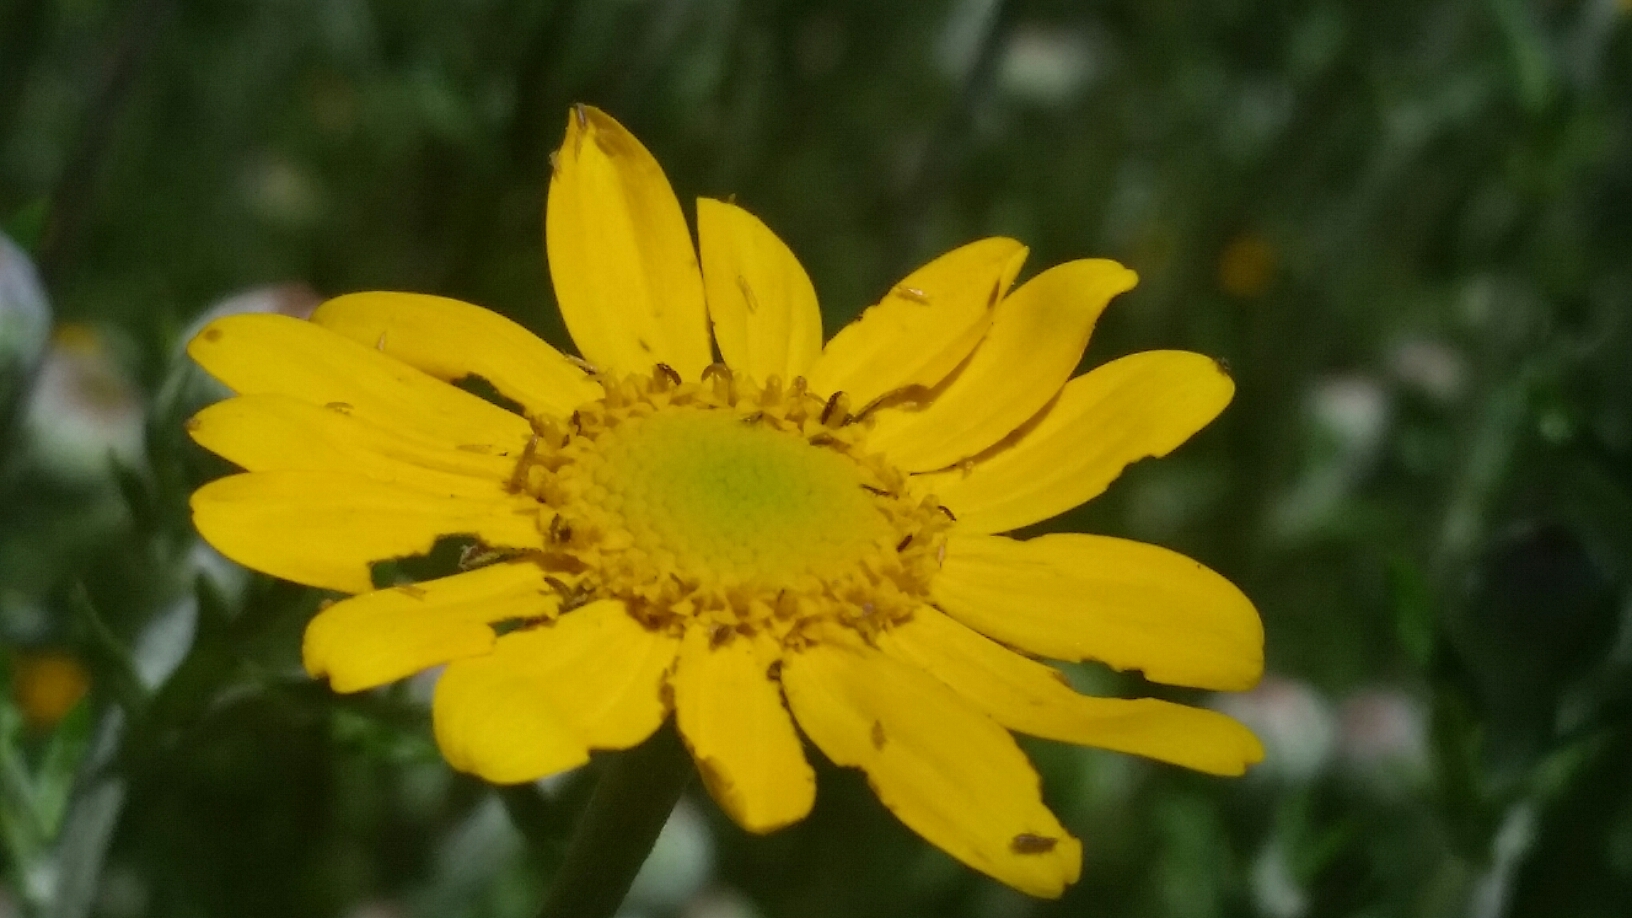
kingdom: Plantae
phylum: Tracheophyta
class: Magnoliopsida
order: Asterales
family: Asteraceae
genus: Eriophyllum
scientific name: Eriophyllum lanatum
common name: Common woolly-sunflower
